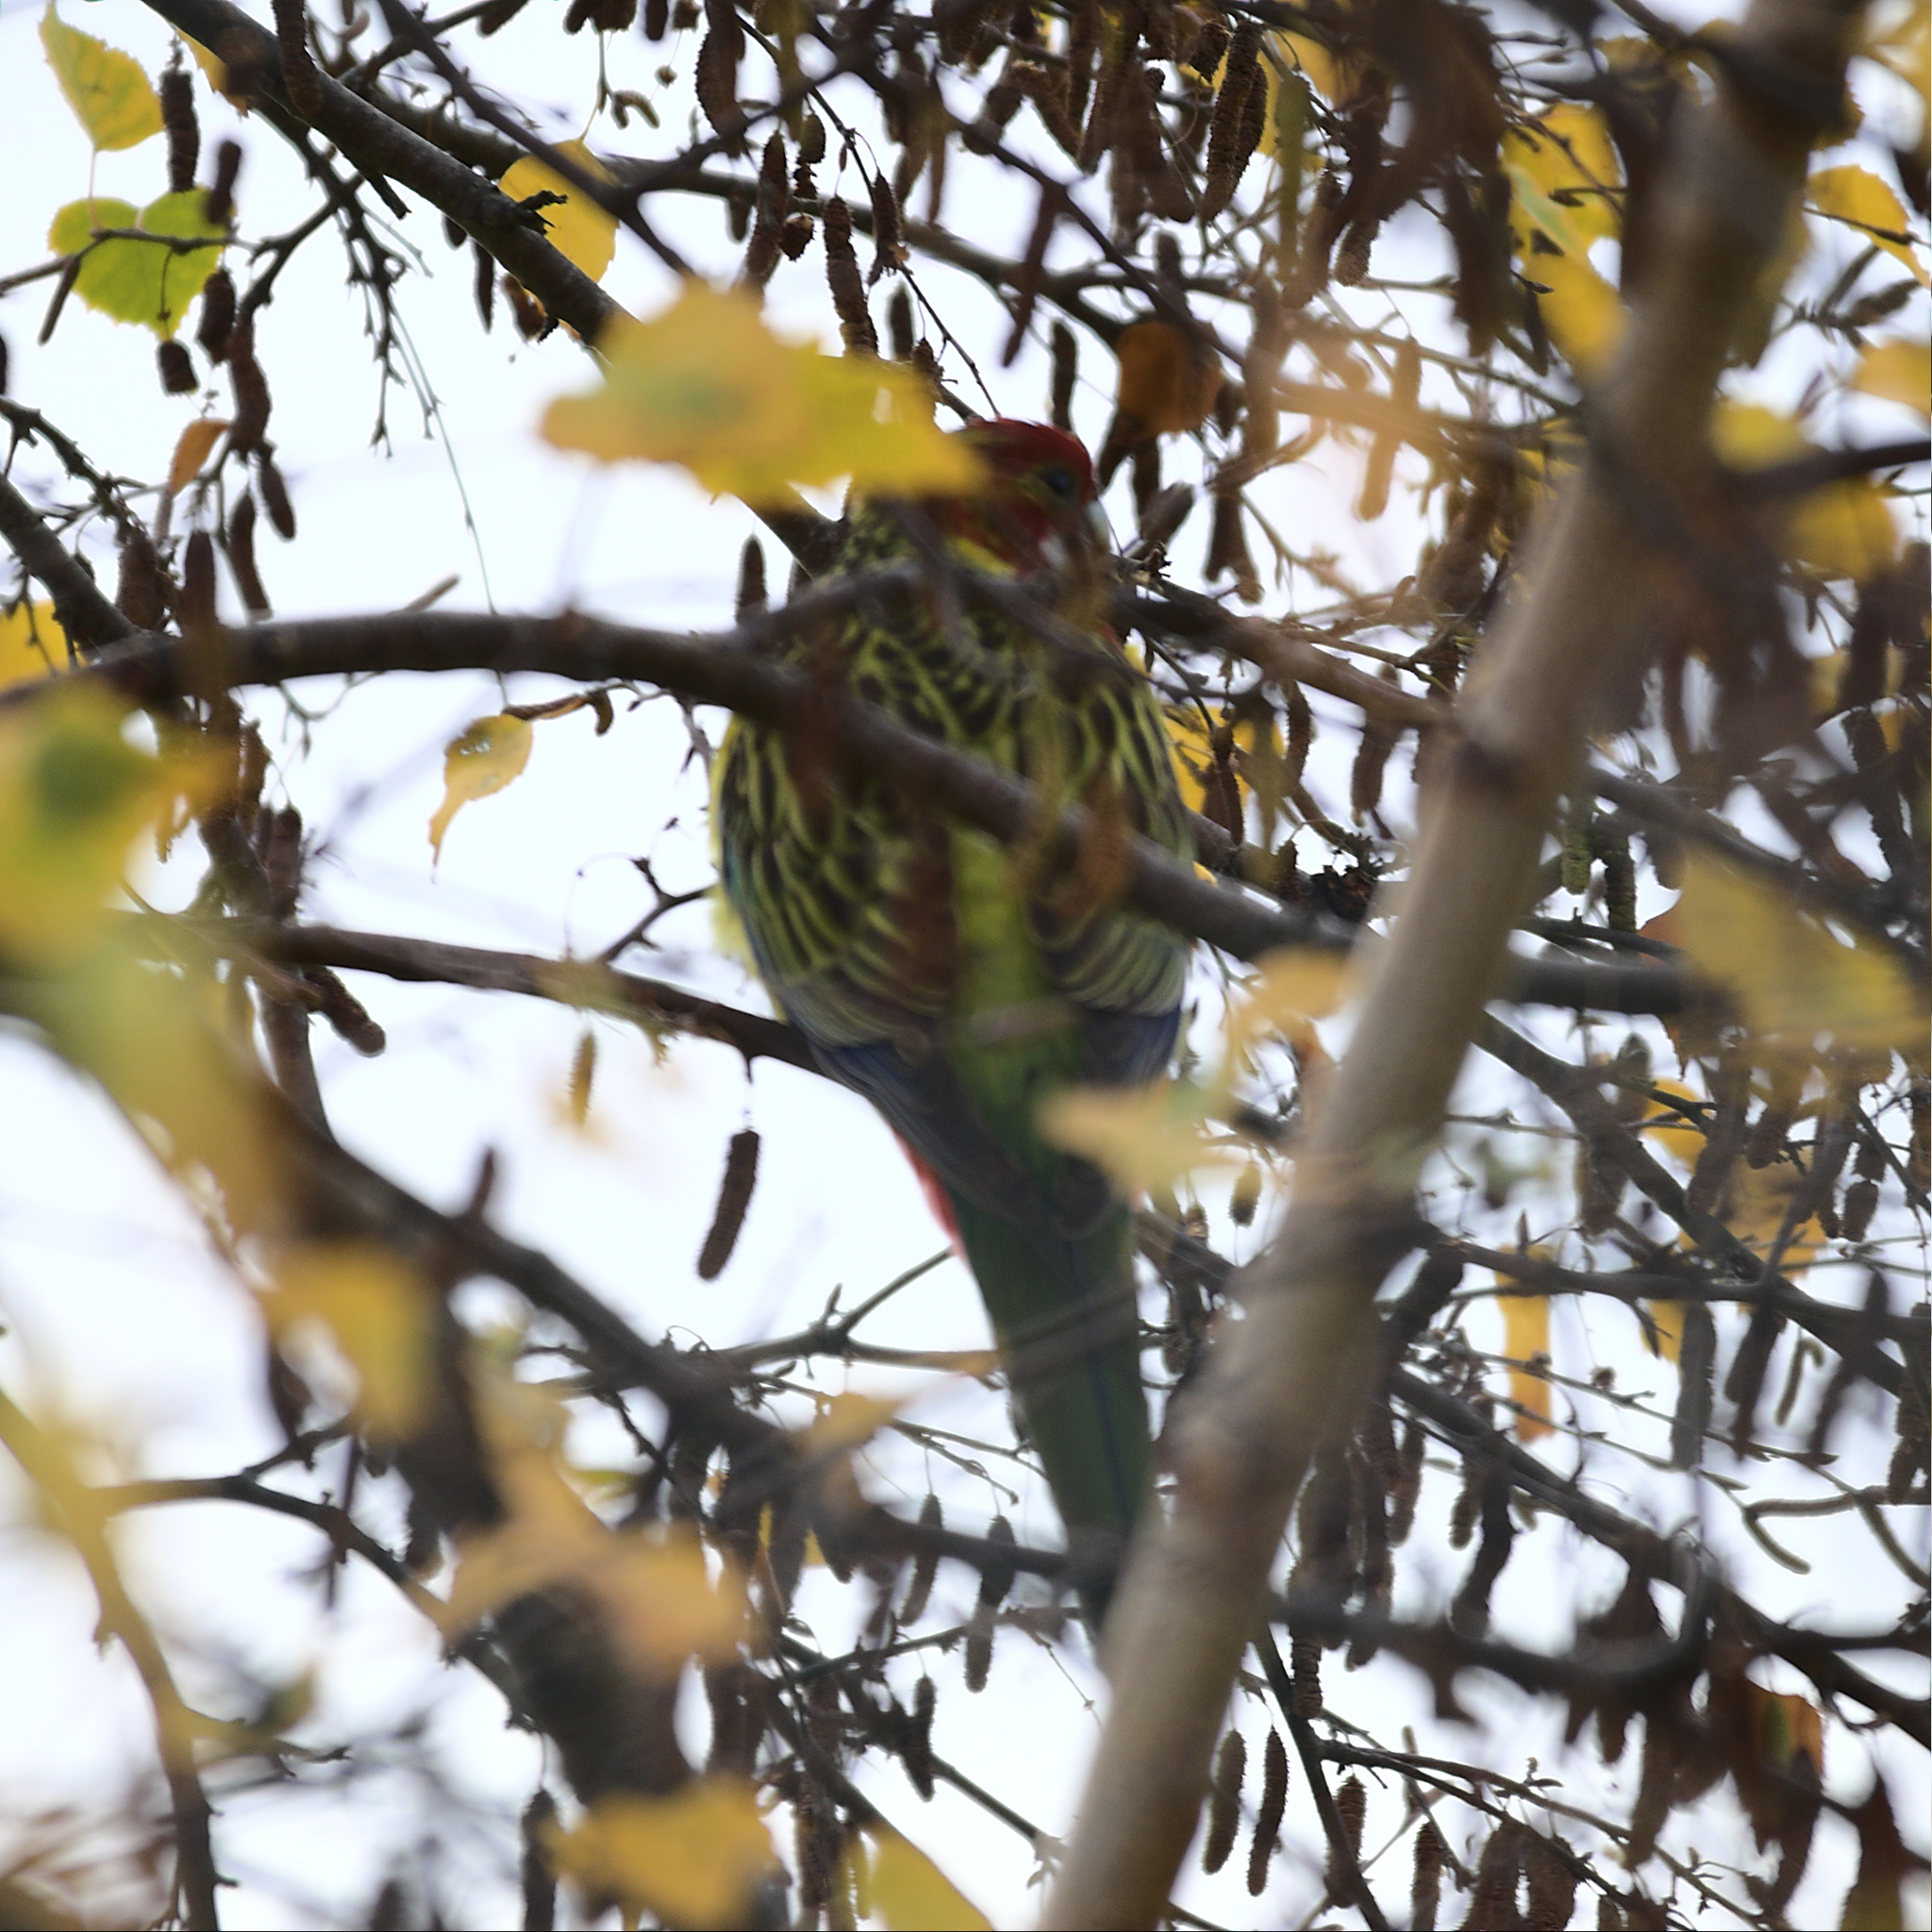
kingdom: Animalia
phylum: Chordata
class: Aves
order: Psittaciformes
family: Psittacidae
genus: Platycercus
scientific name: Platycercus eximius
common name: Eastern rosella
